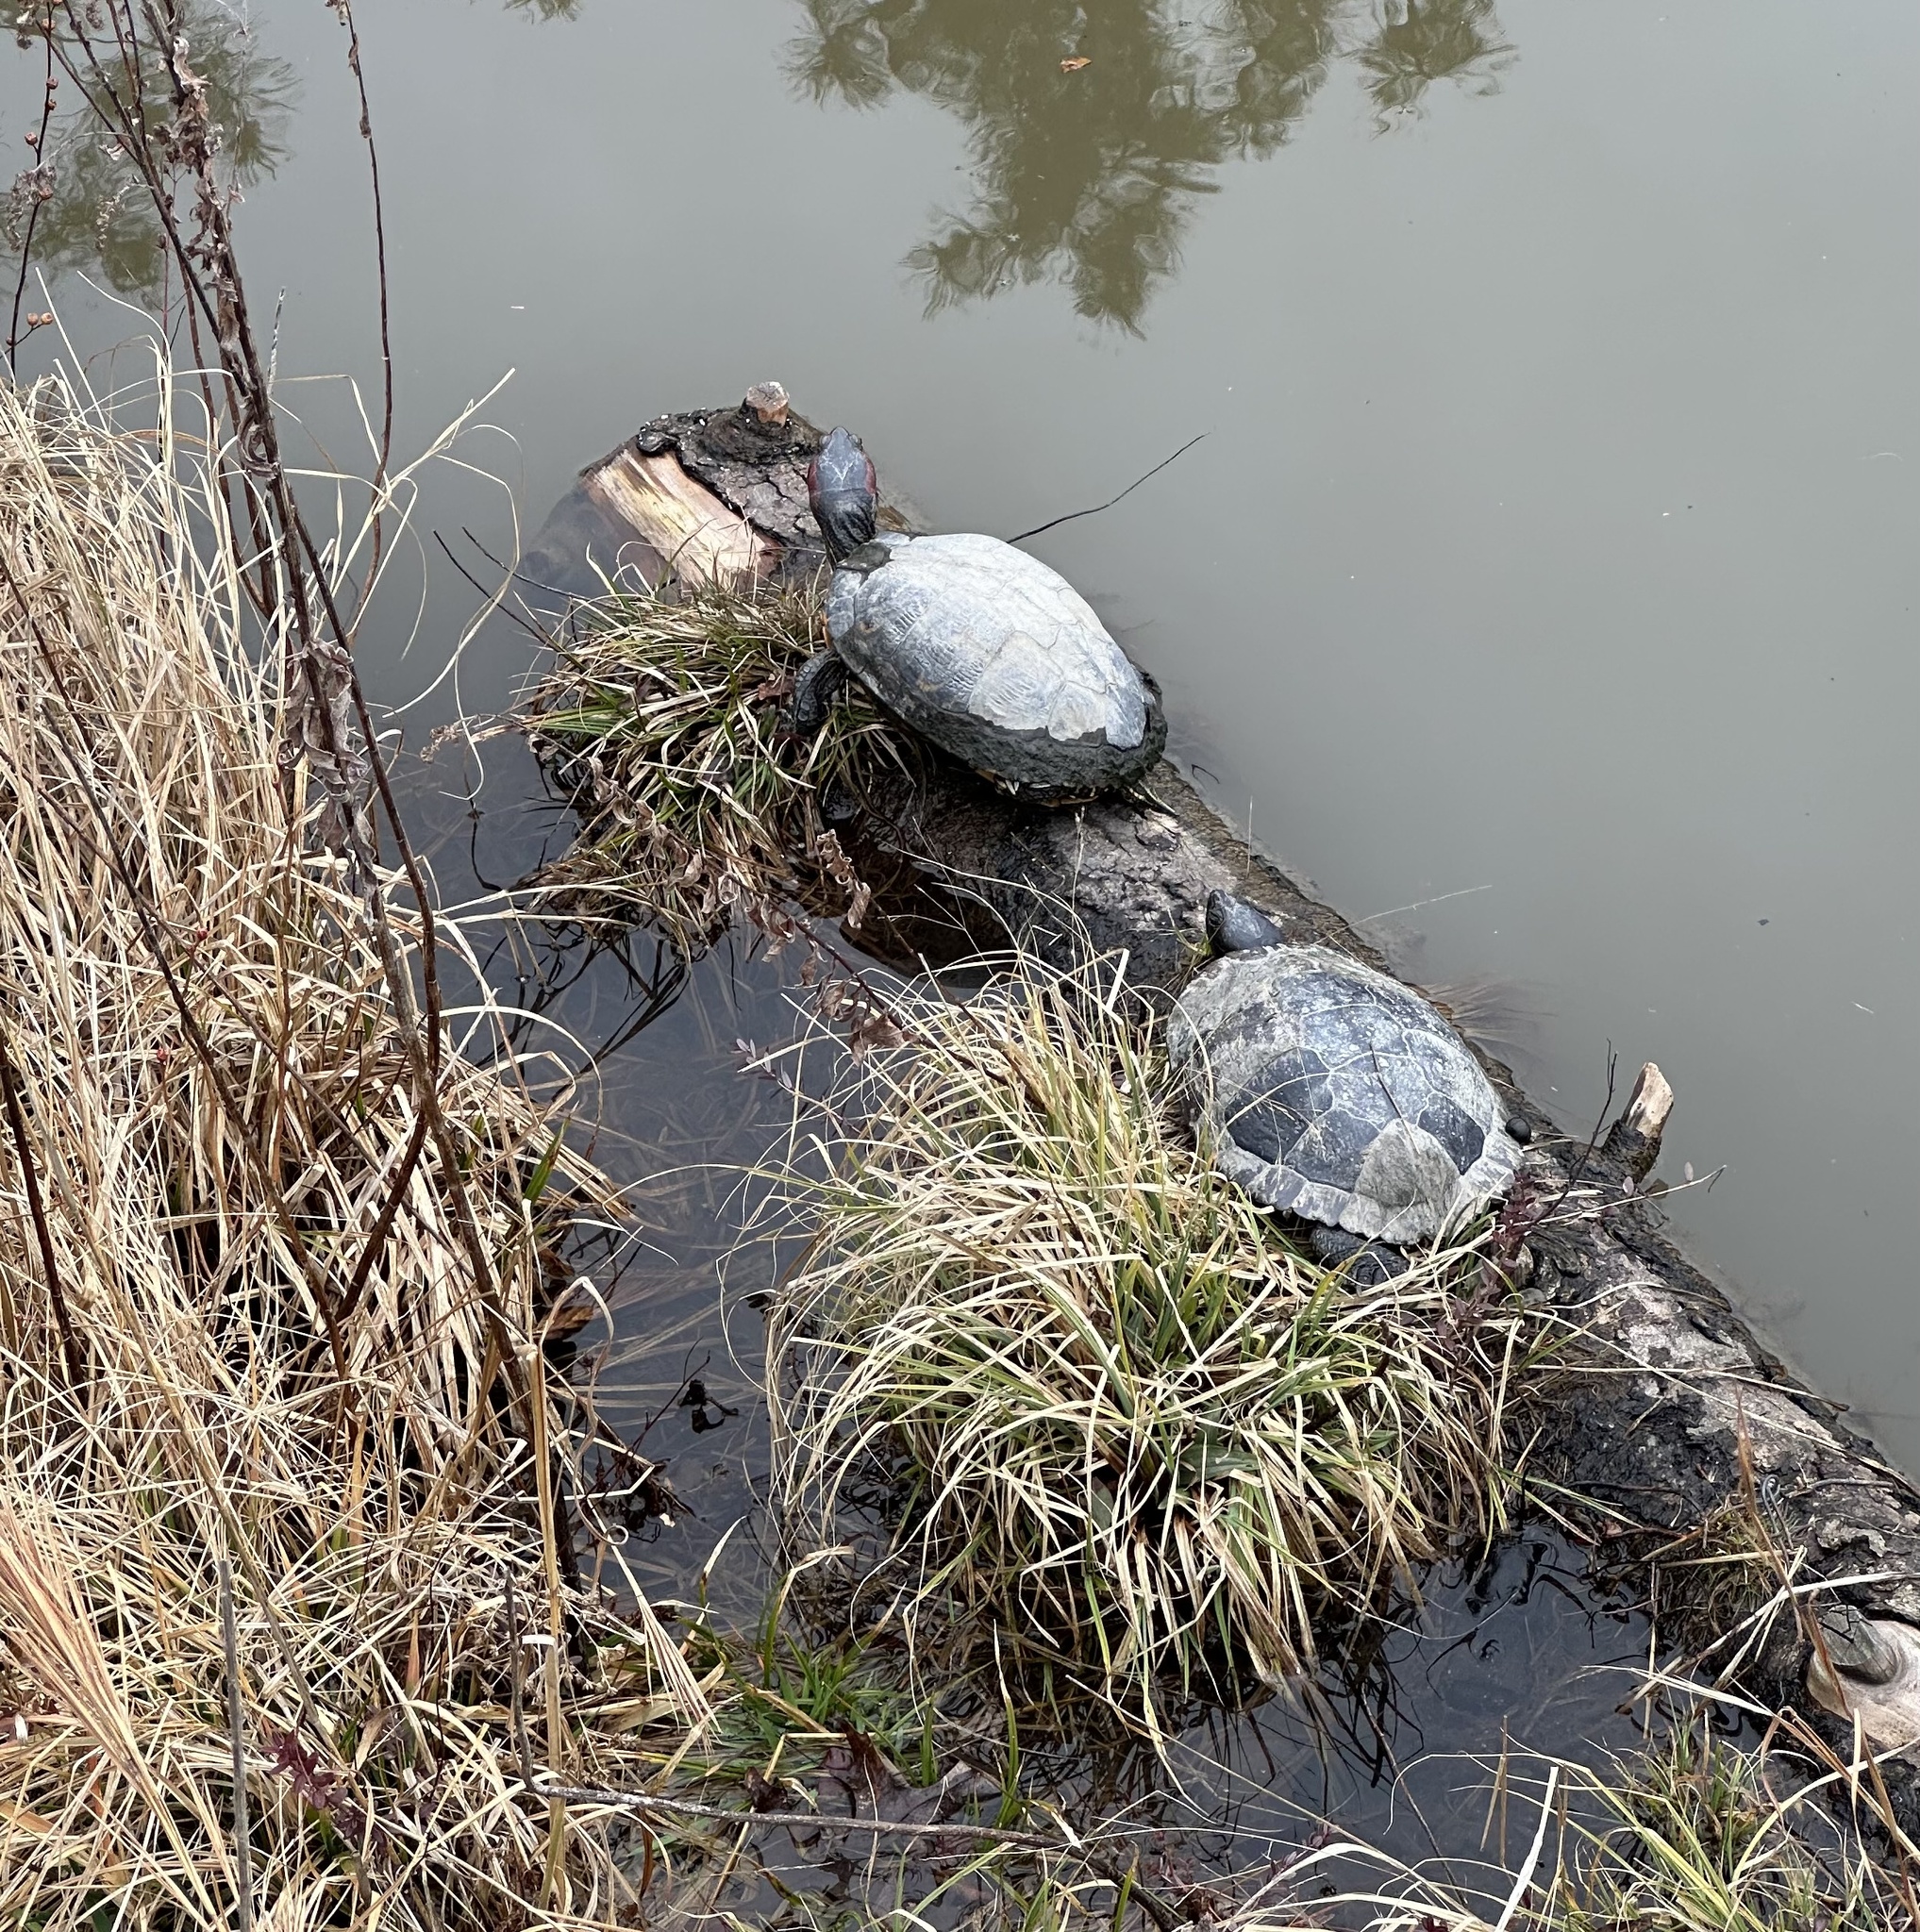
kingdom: Animalia
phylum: Chordata
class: Testudines
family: Emydidae
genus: Trachemys
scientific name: Trachemys scripta
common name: Slider
